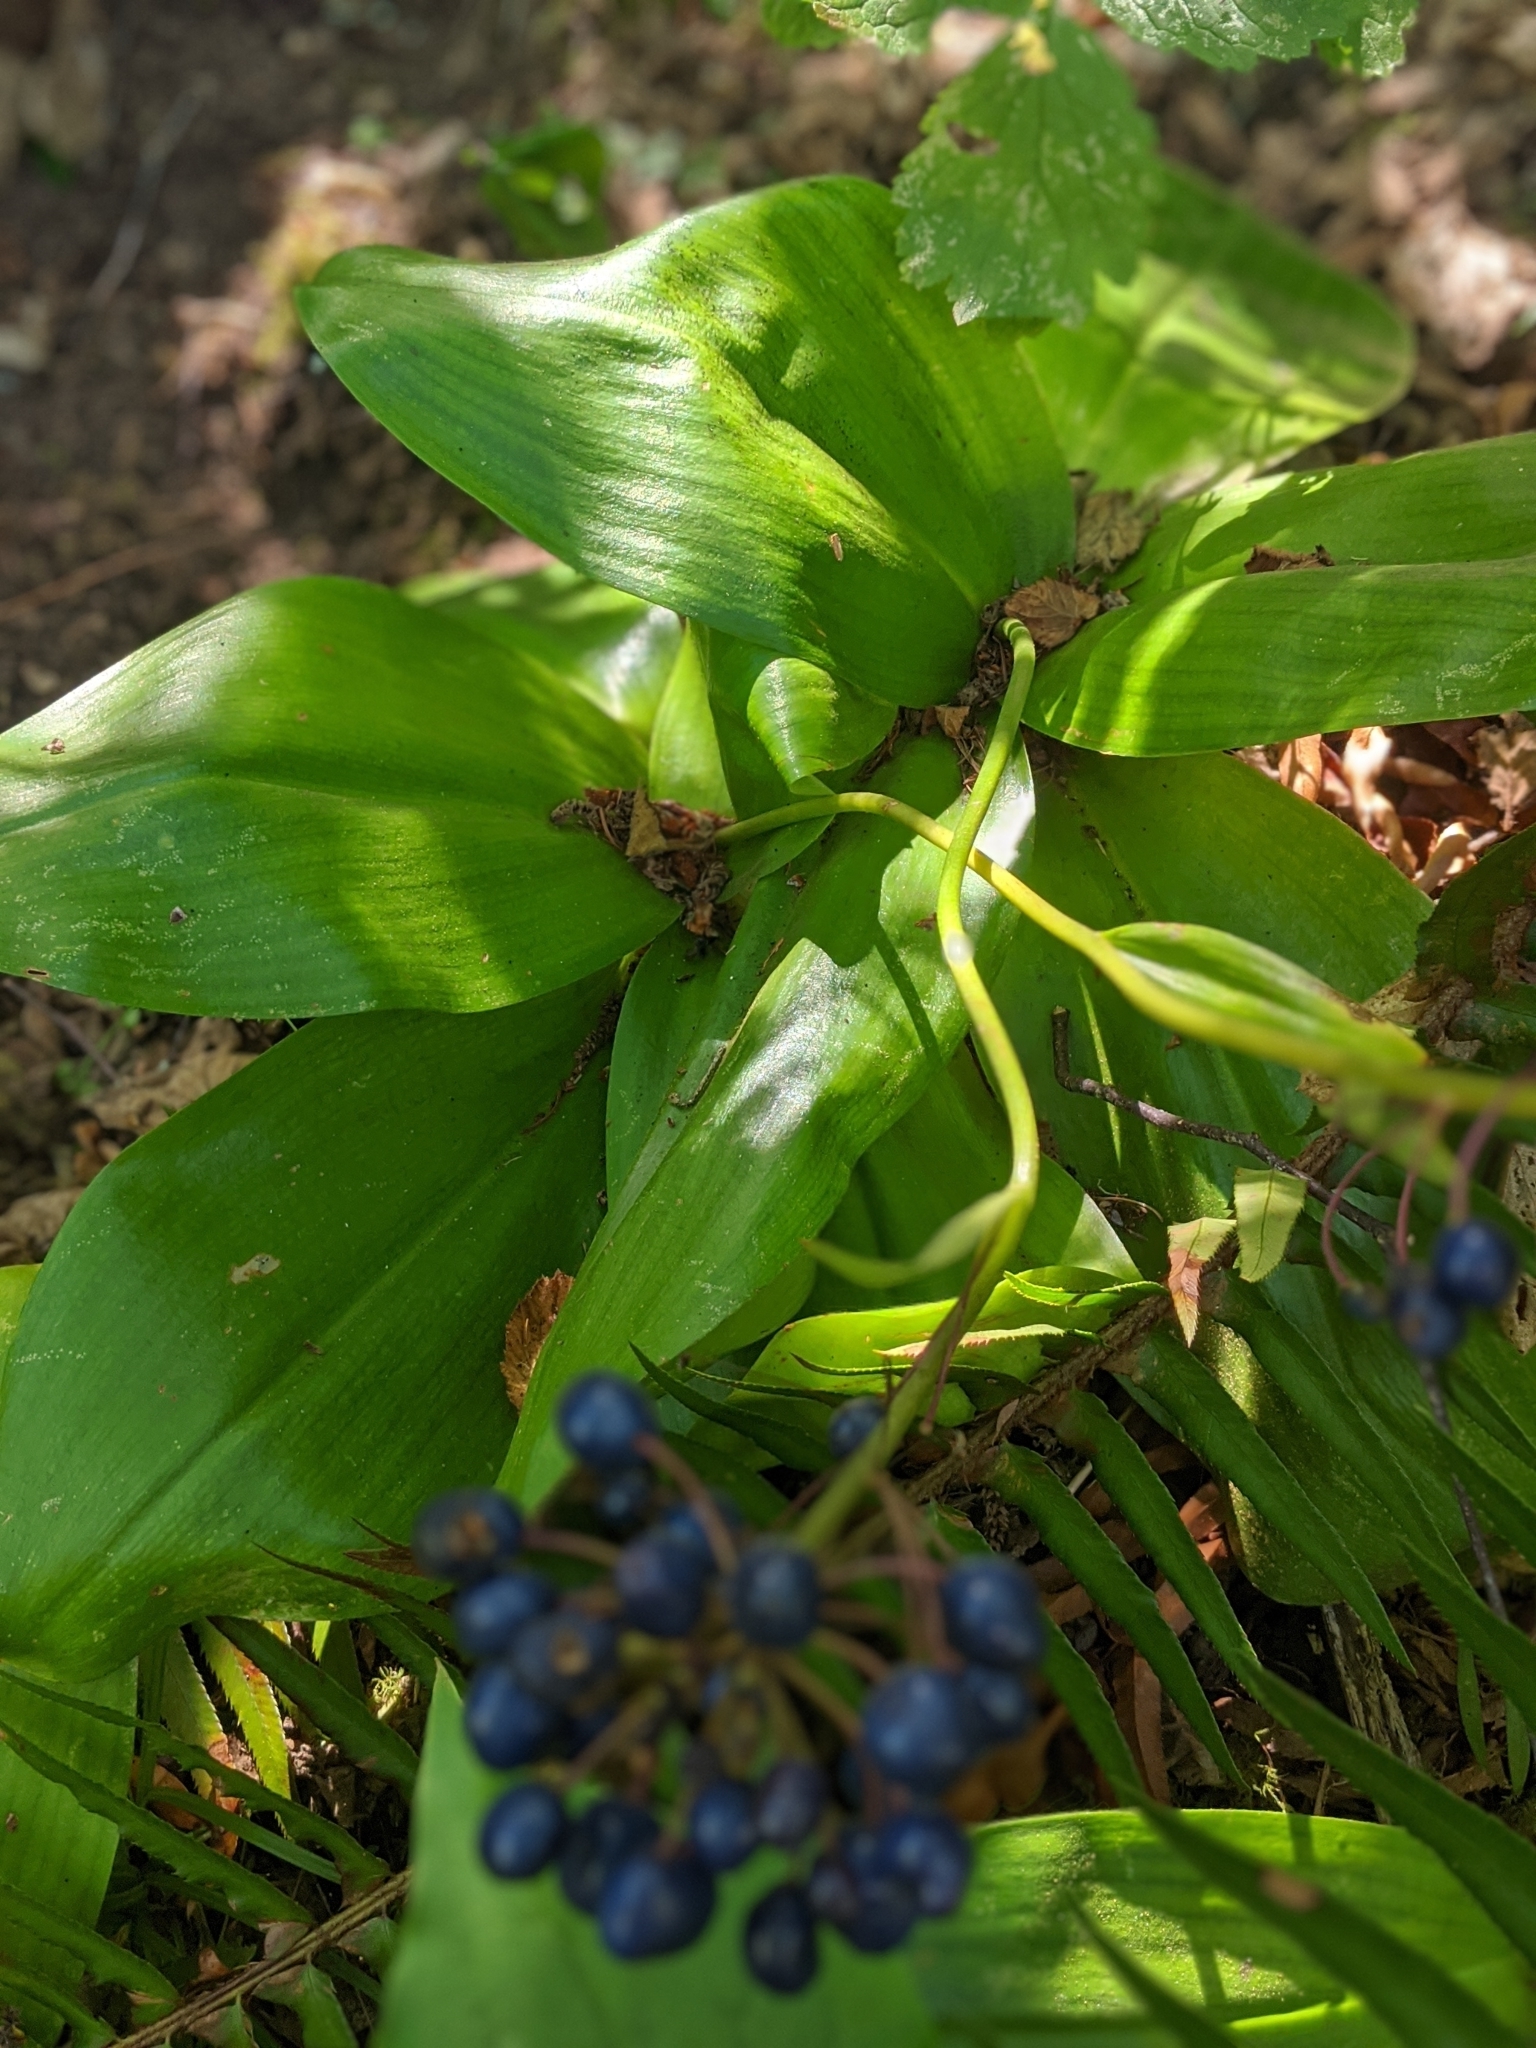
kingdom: Plantae
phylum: Tracheophyta
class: Liliopsida
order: Liliales
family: Liliaceae
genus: Clintonia
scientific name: Clintonia andrewsiana
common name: Red clintonia
